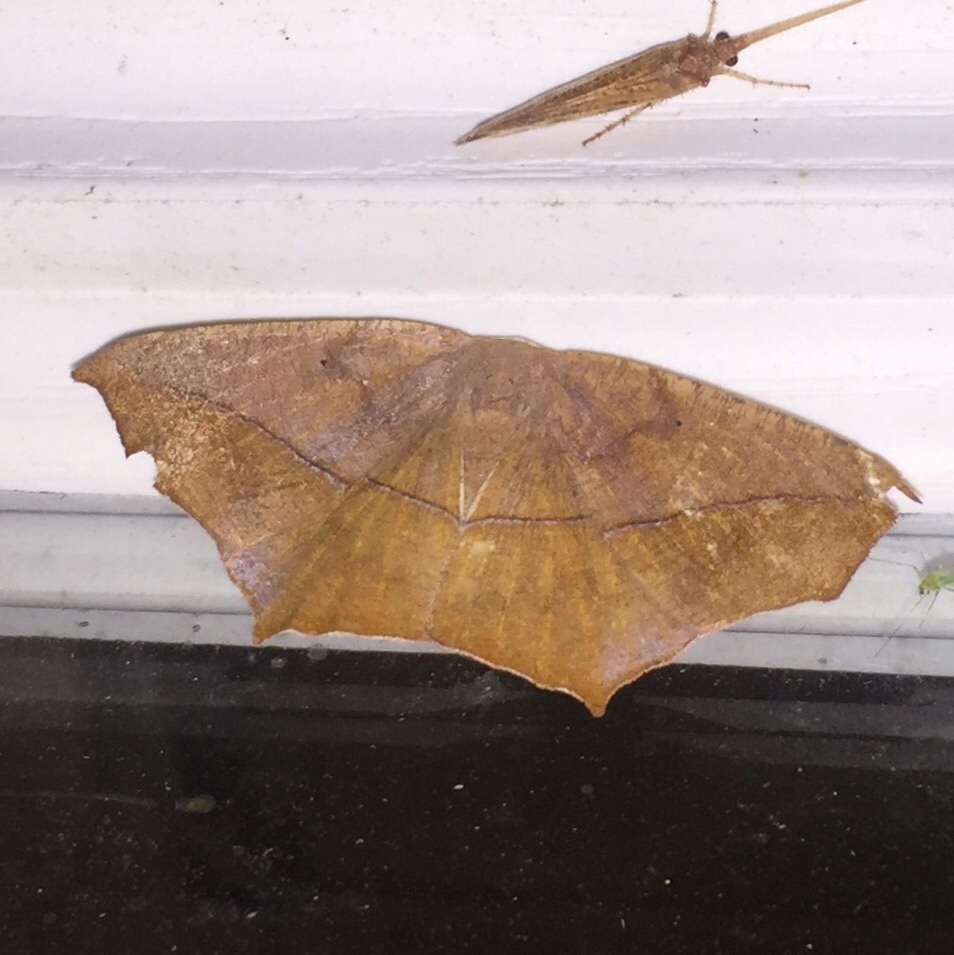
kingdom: Animalia
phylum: Arthropoda
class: Insecta
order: Lepidoptera
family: Geometridae
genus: Prochoerodes
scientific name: Prochoerodes lineola
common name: Large maple spanworm
